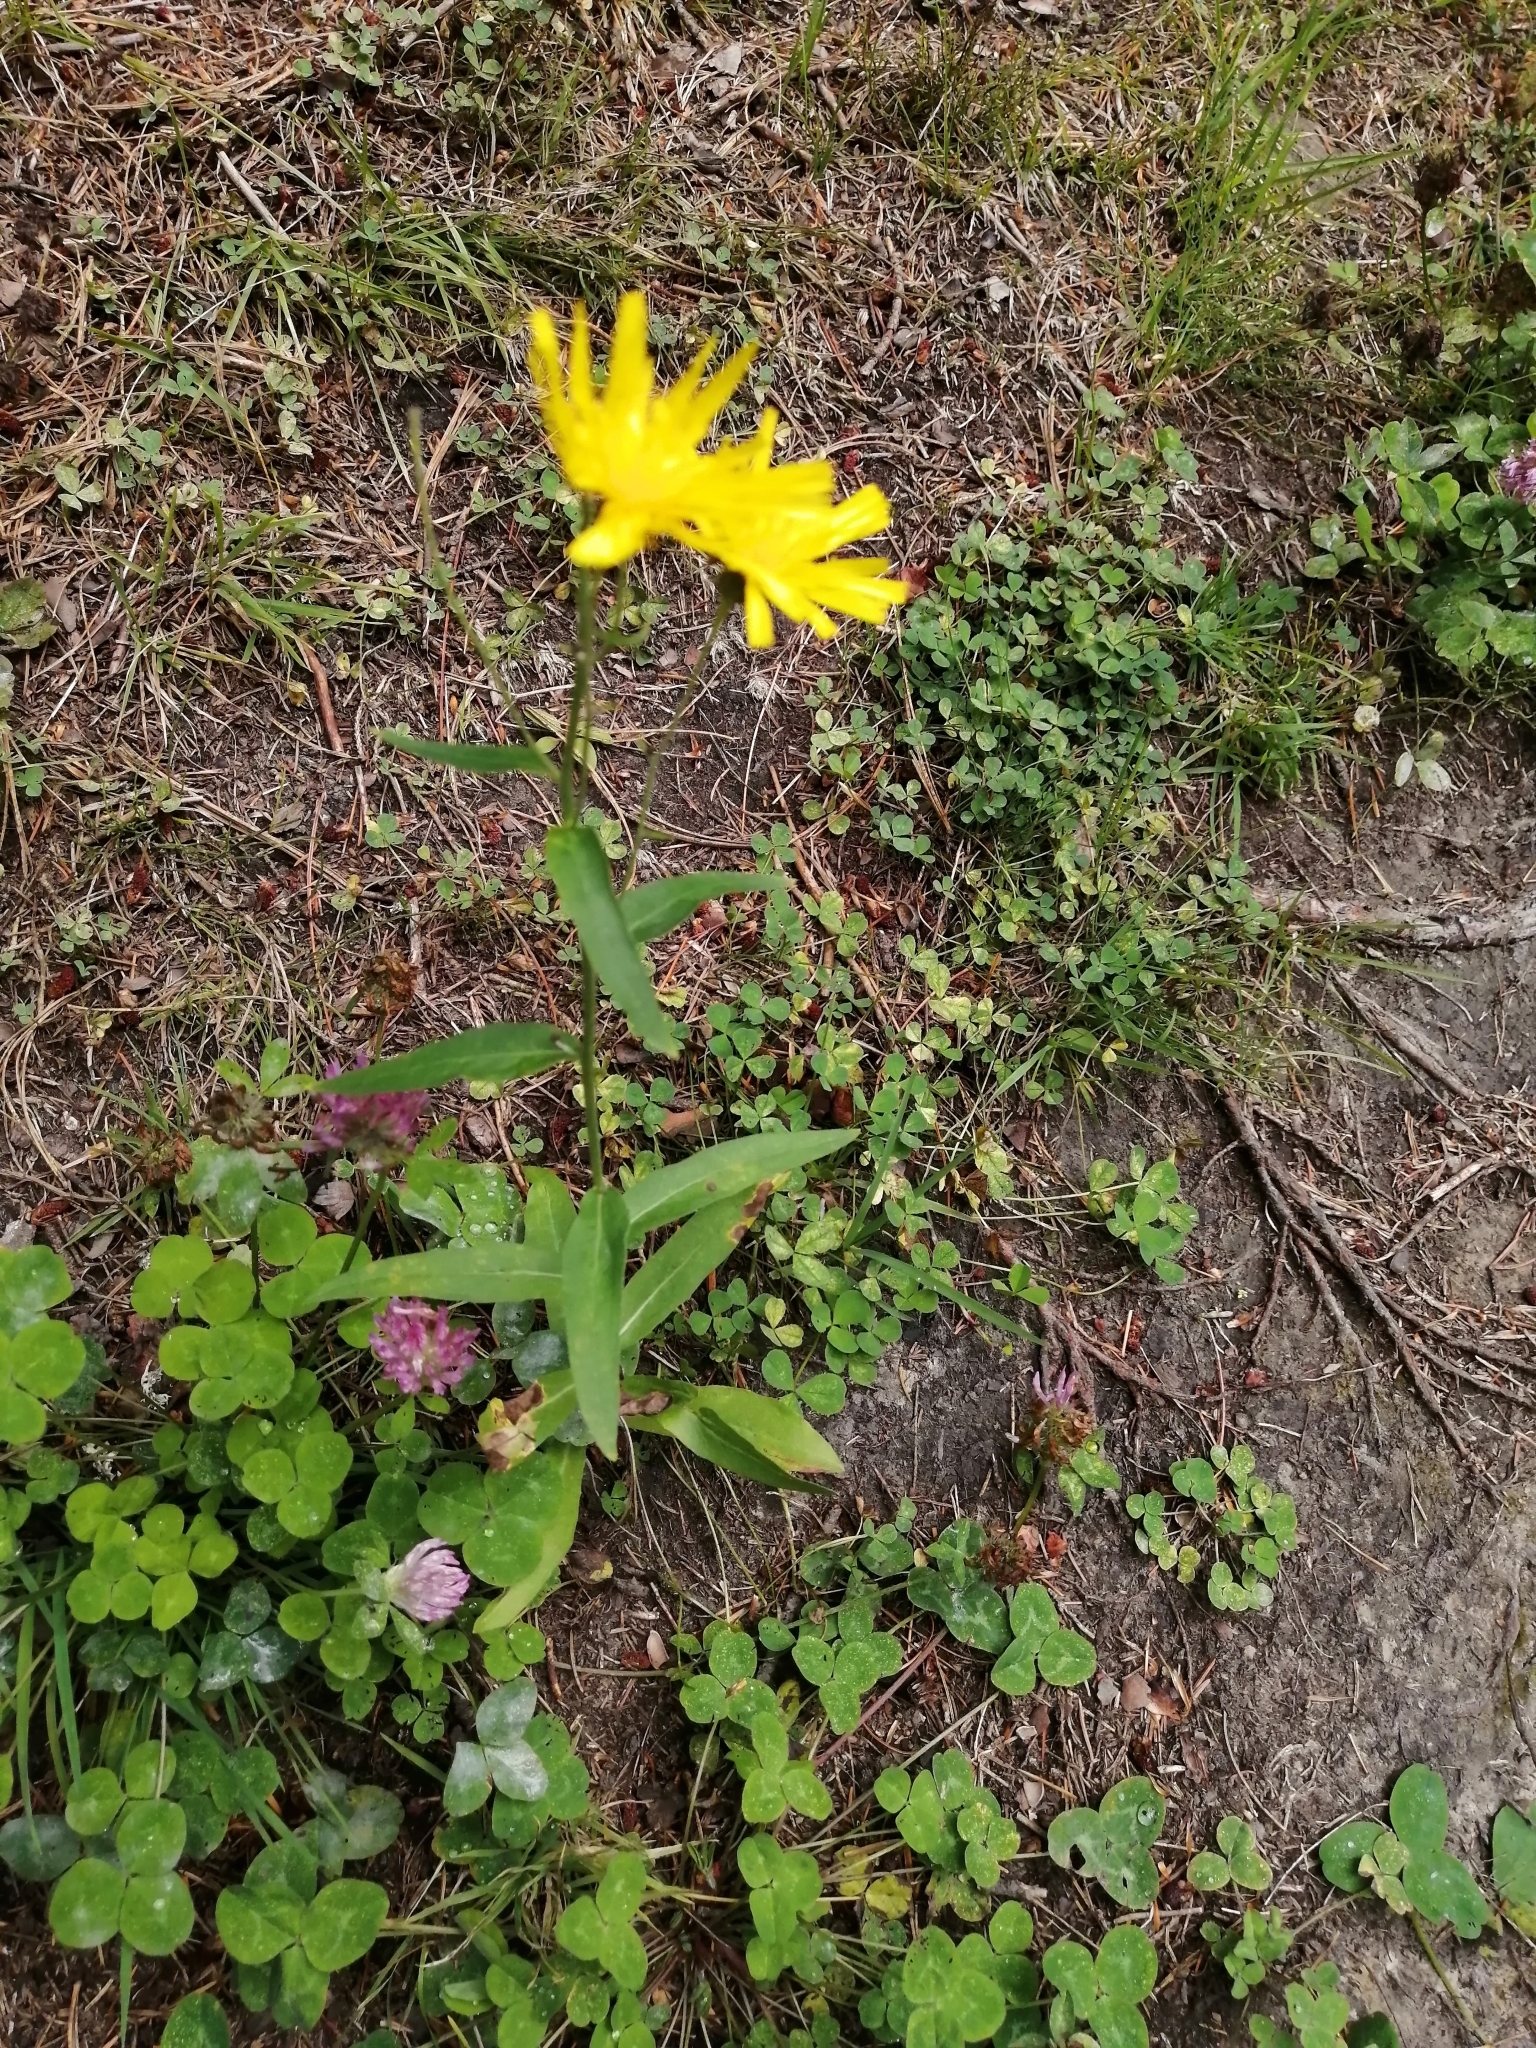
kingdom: Plantae
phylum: Tracheophyta
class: Magnoliopsida
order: Asterales
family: Asteraceae
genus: Hieracium
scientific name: Hieracium umbellatum
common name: Northern hawkweed
